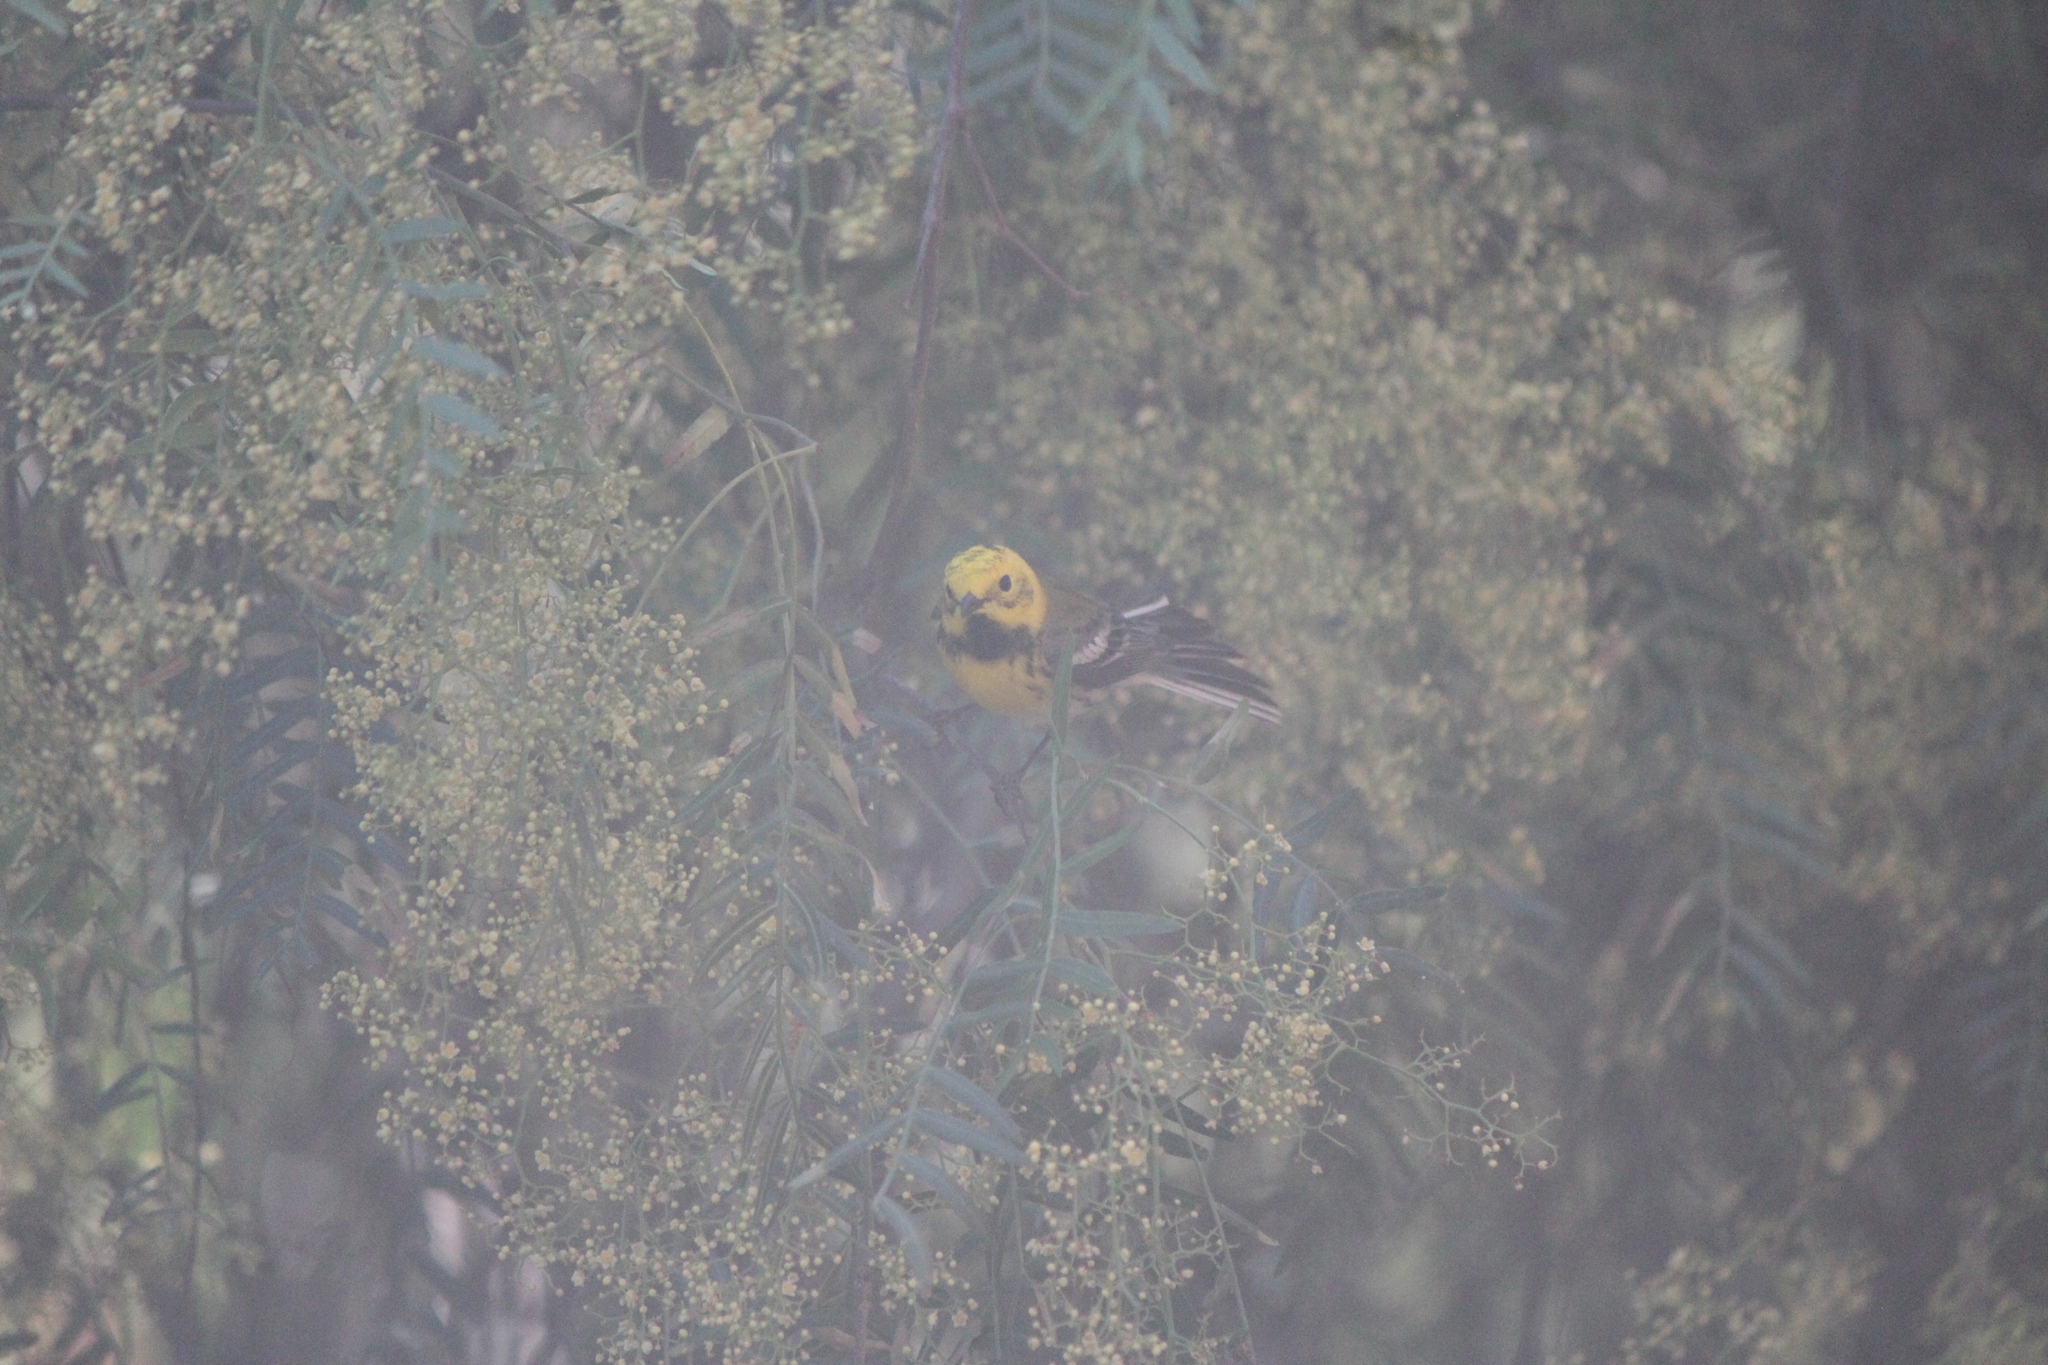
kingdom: Animalia
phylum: Chordata
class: Aves
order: Passeriformes
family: Parulidae
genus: Setophaga
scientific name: Setophaga
